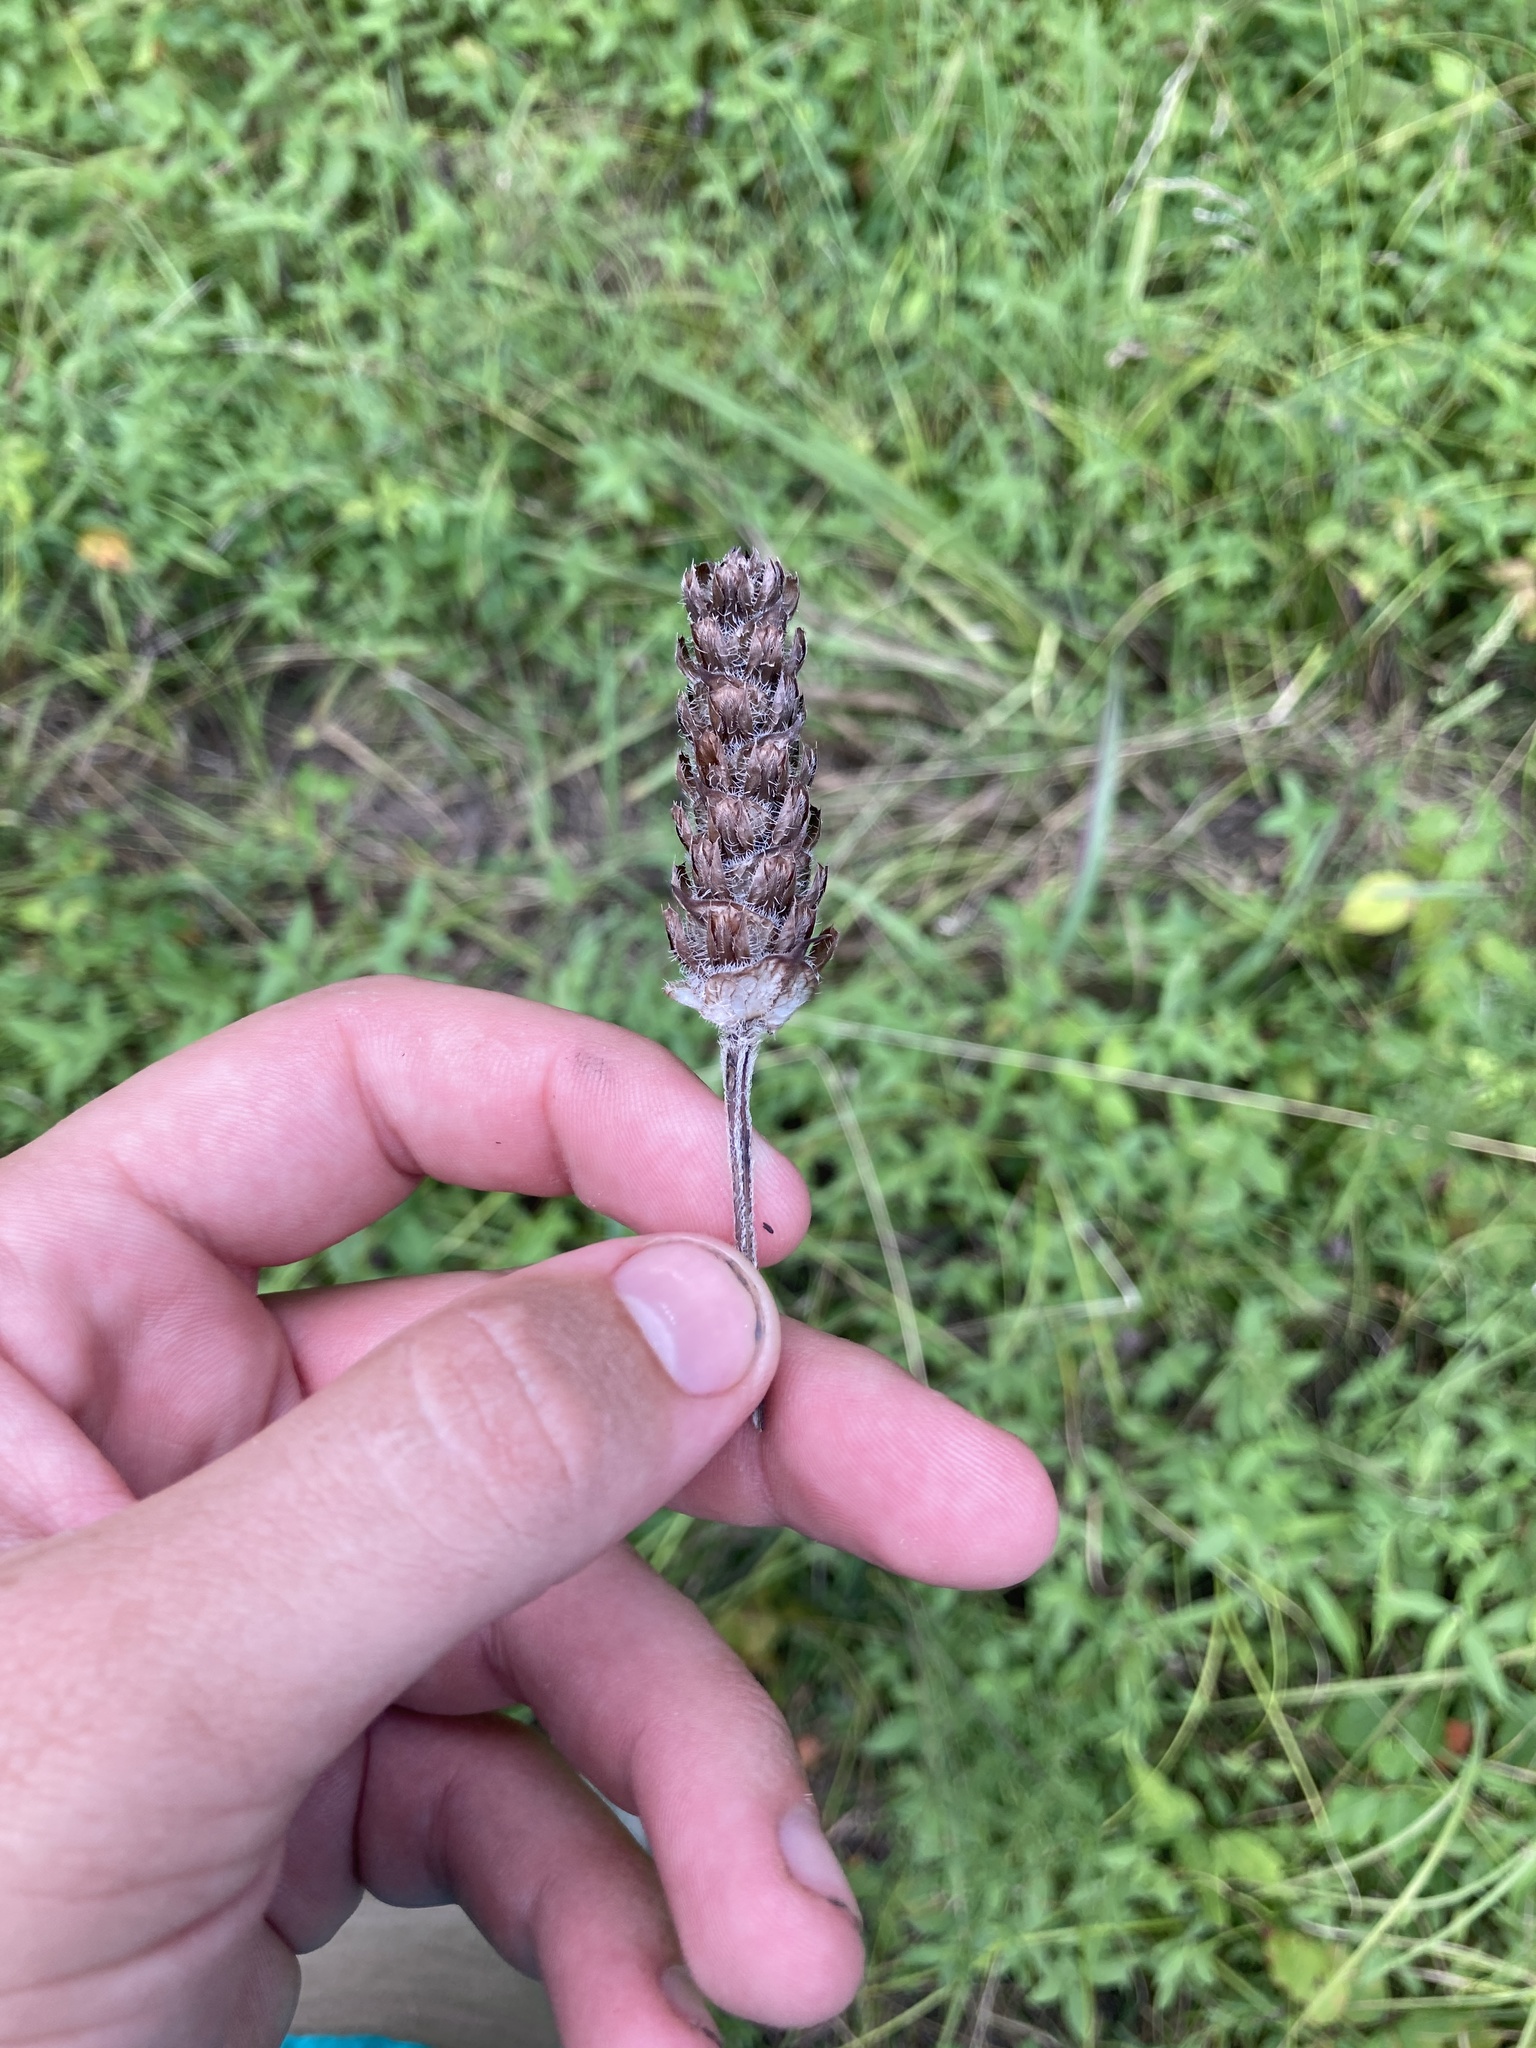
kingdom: Plantae
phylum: Tracheophyta
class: Magnoliopsida
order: Lamiales
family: Lamiaceae
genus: Prunella
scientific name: Prunella vulgaris
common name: Heal-all
